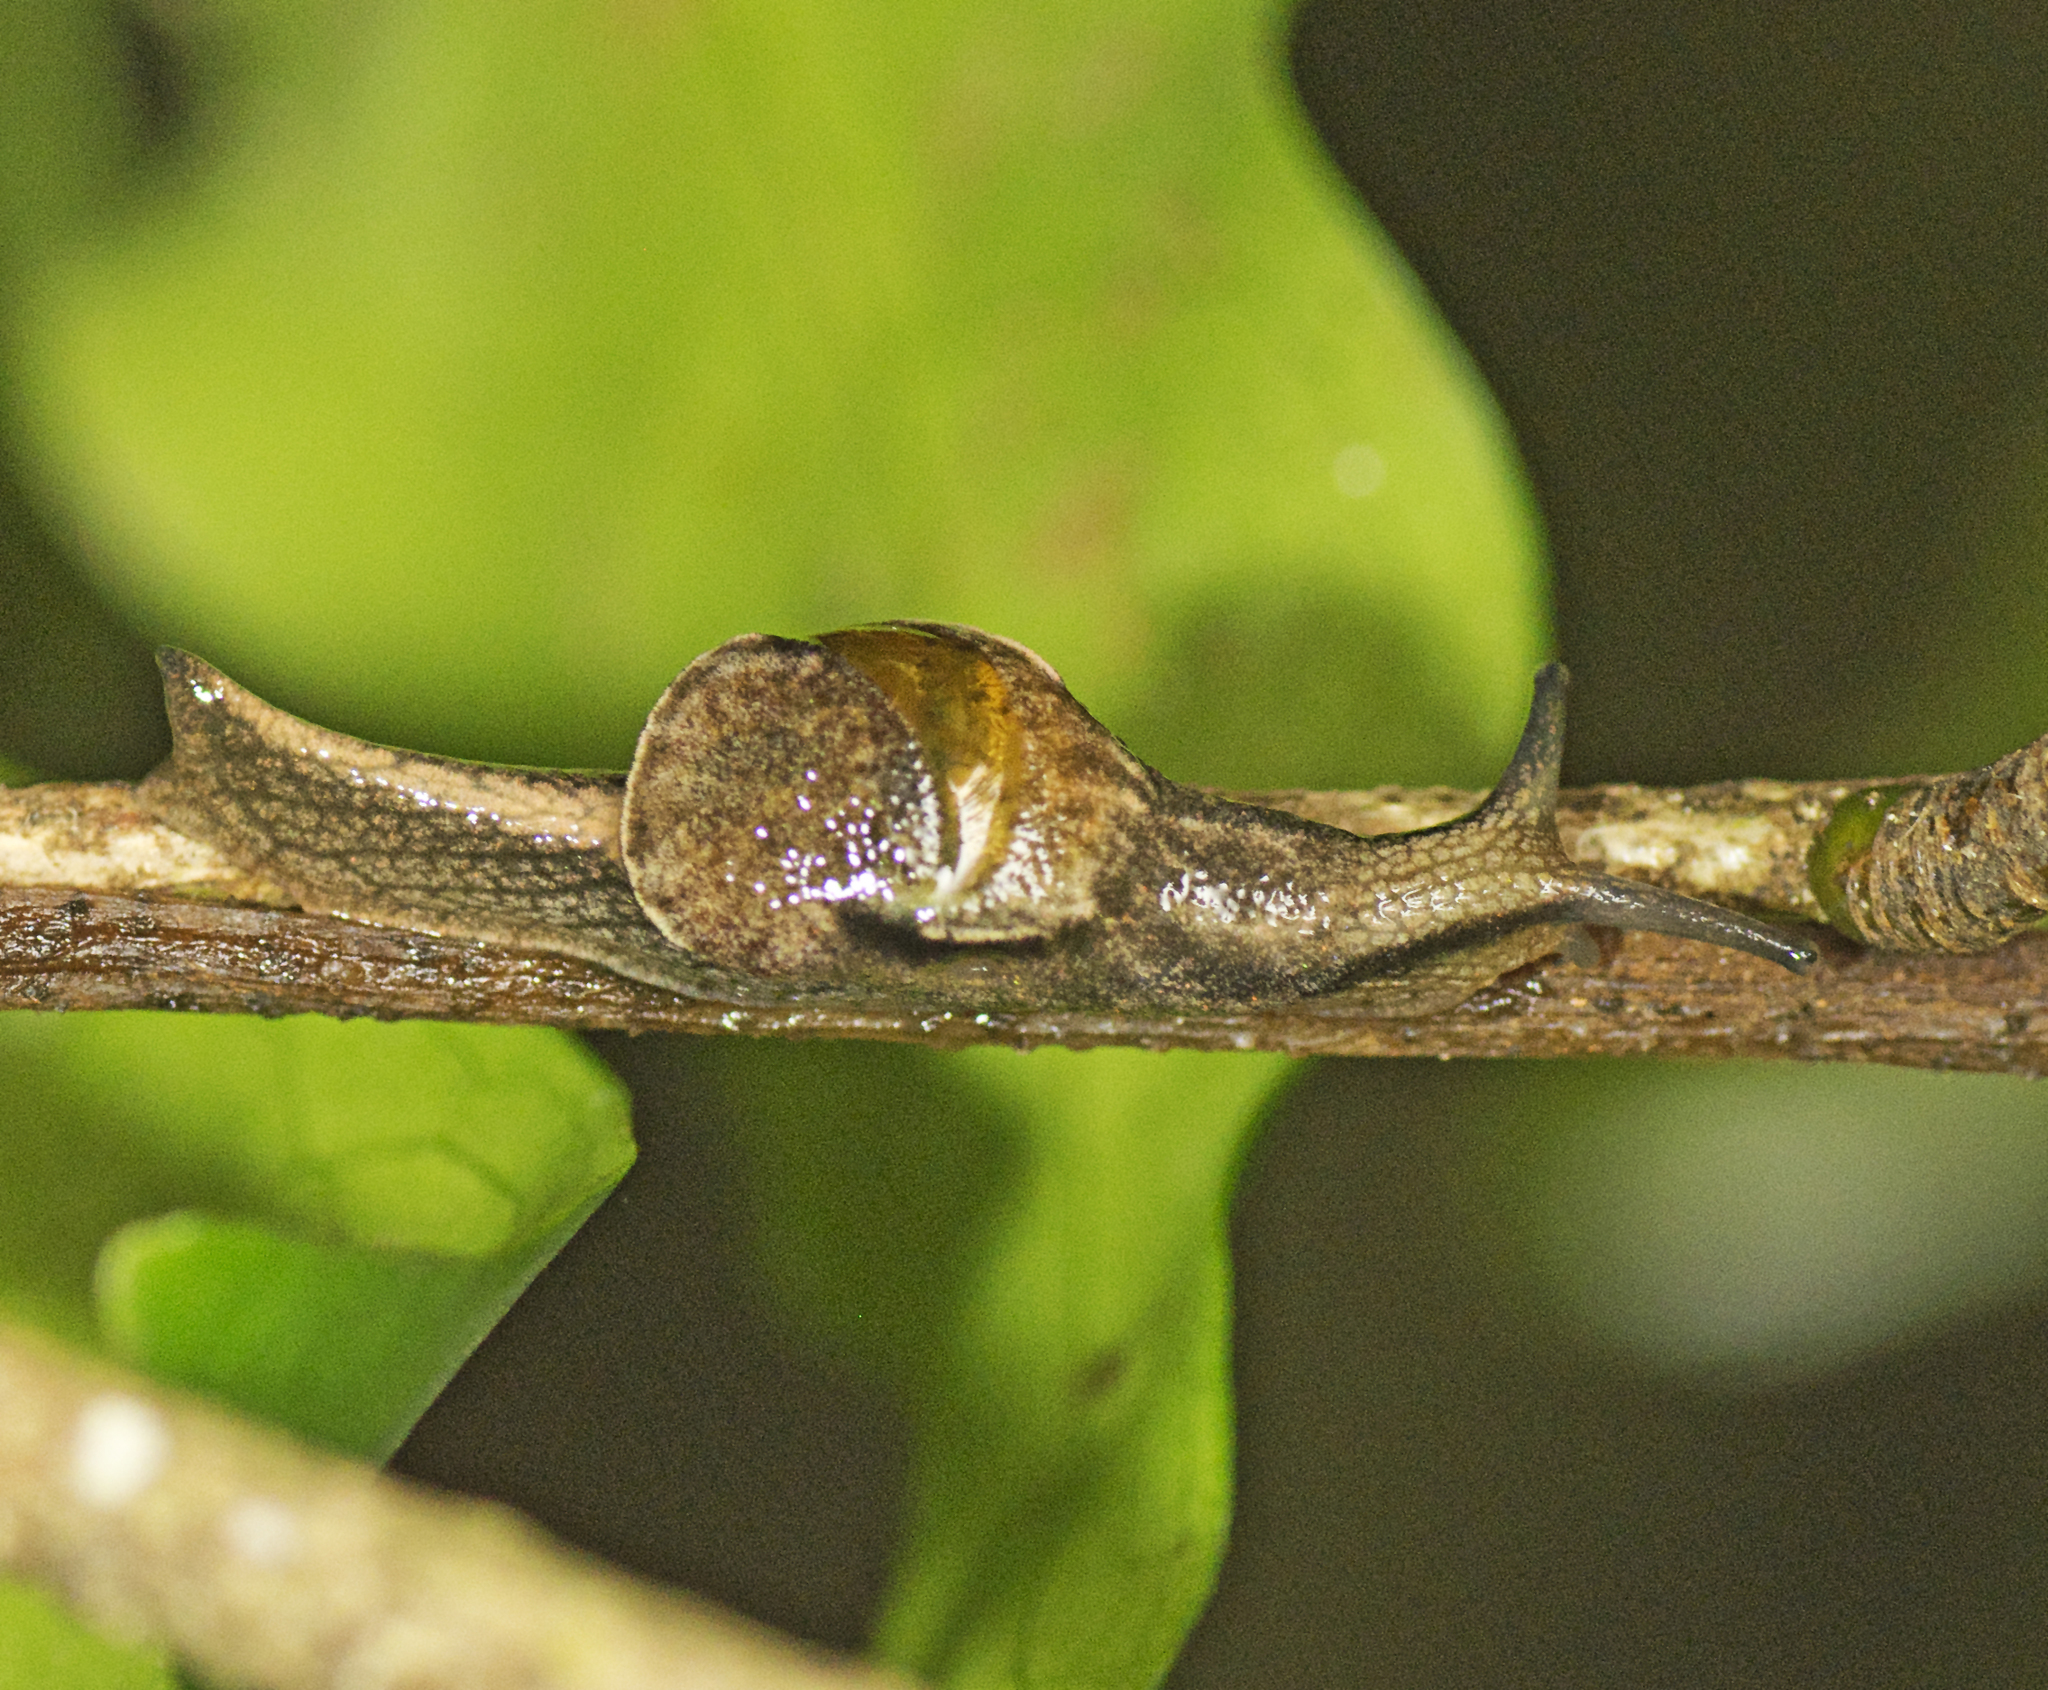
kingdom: Animalia
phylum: Mollusca
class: Gastropoda
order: Stylommatophora
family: Helicarionidae
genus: Ubiquitarion
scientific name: Ubiquitarion iridis
